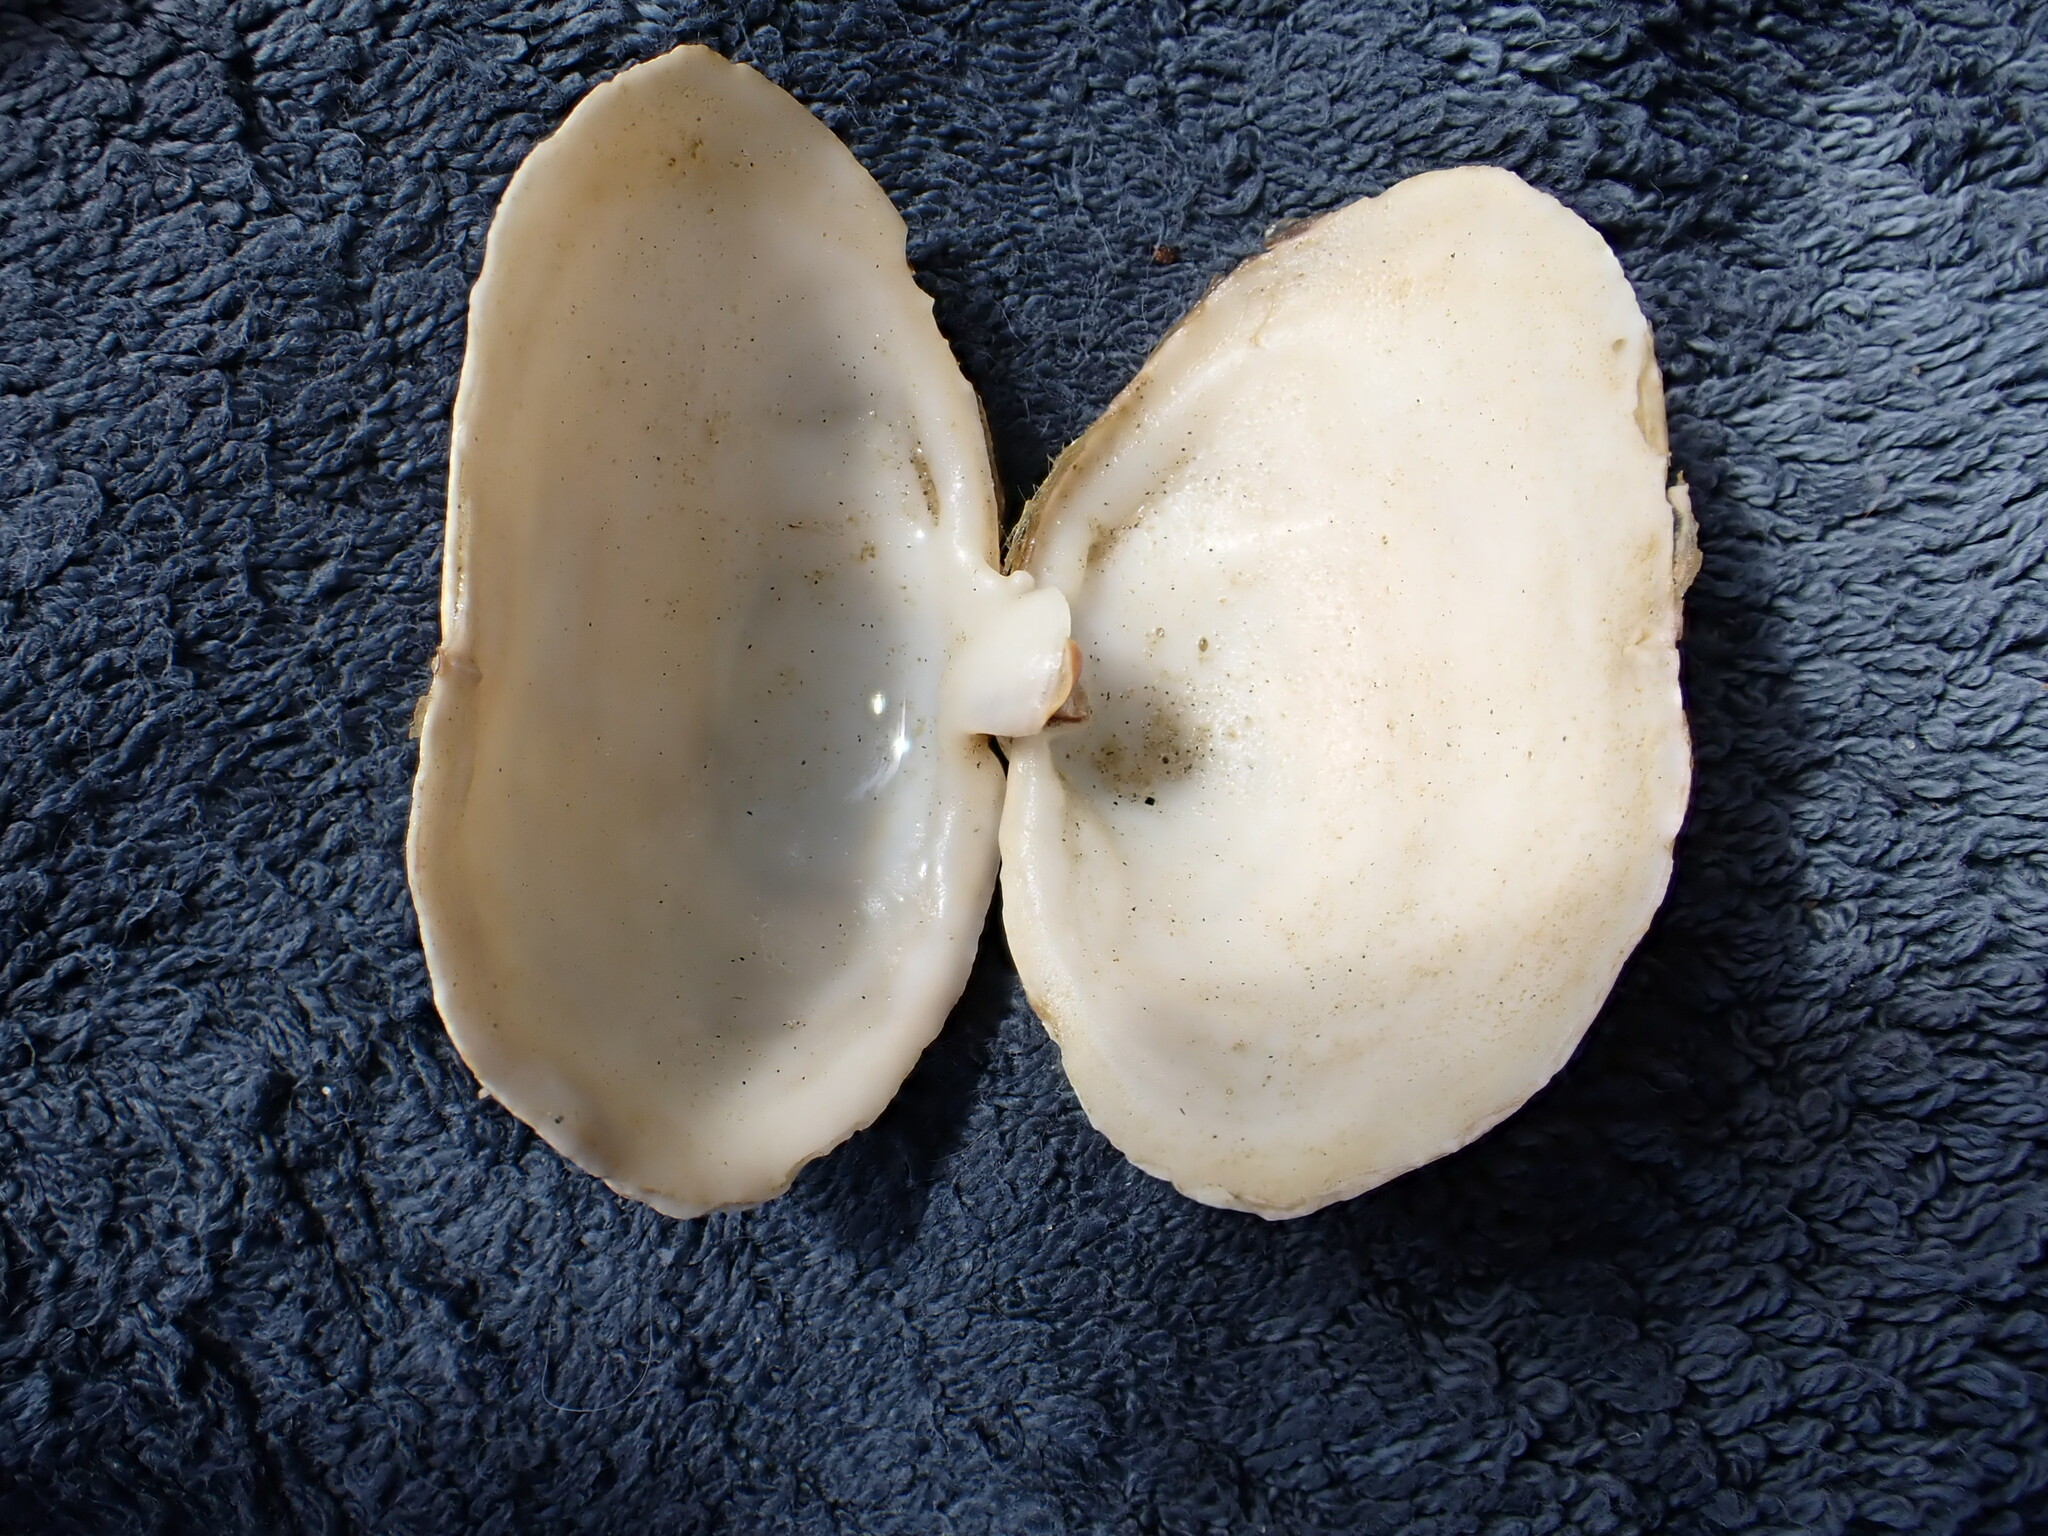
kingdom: Animalia
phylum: Mollusca
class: Bivalvia
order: Myida
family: Myidae
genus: Mya
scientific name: Mya arenaria
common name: Soft-shelled clam
